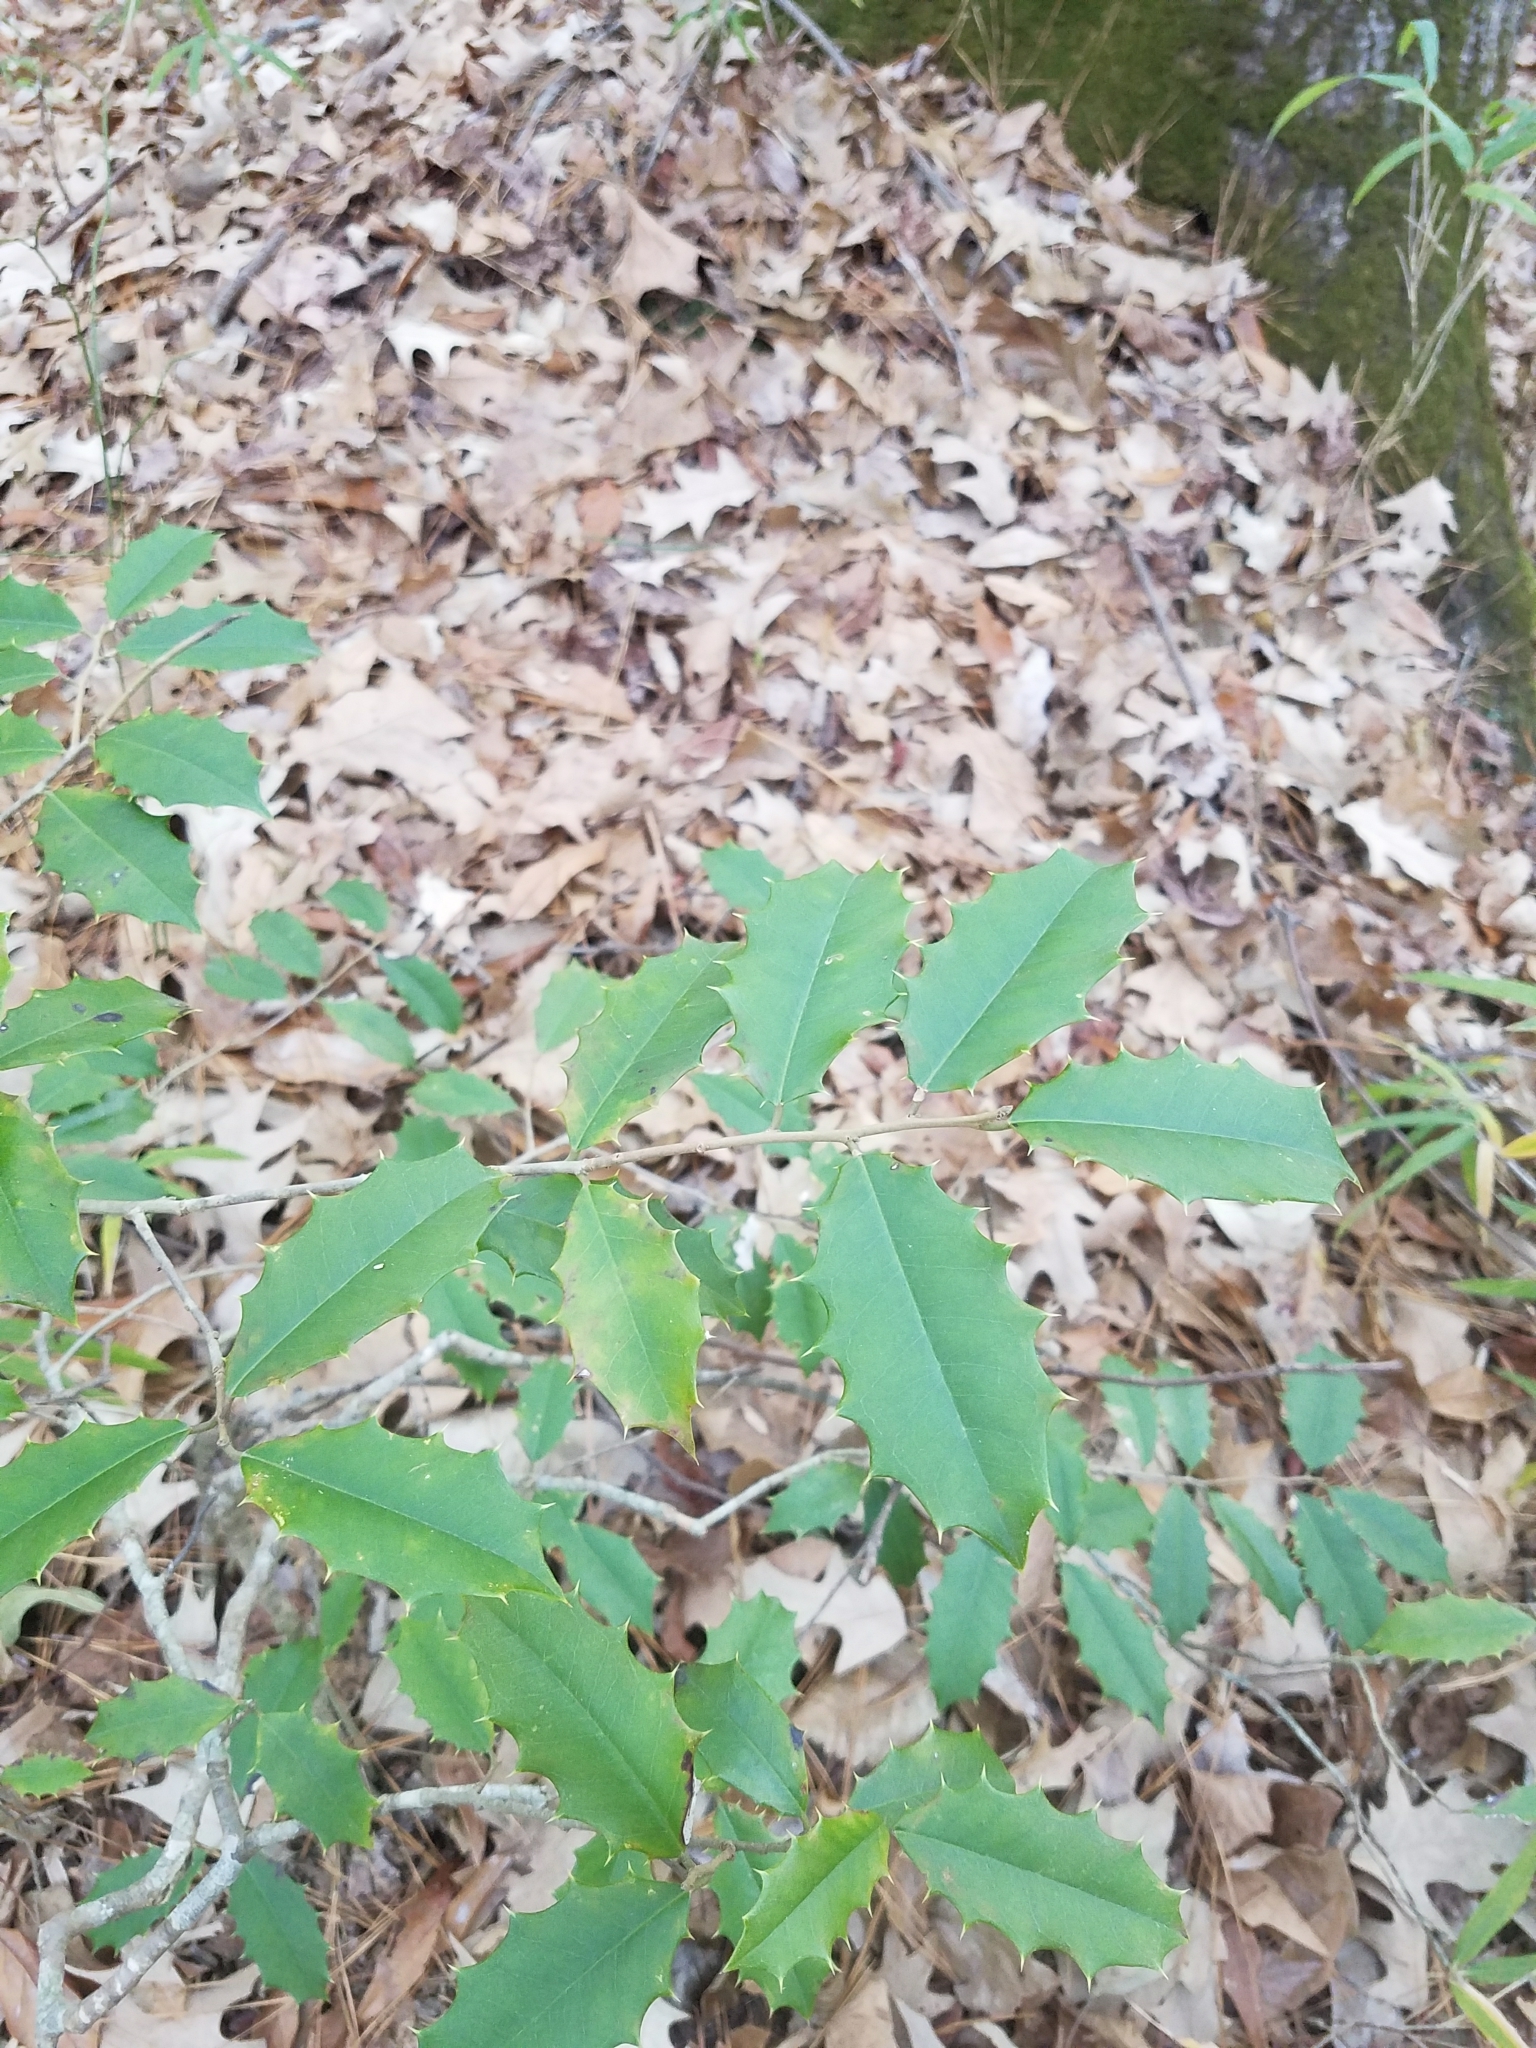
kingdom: Plantae
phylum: Tracheophyta
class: Magnoliopsida
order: Aquifoliales
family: Aquifoliaceae
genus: Ilex
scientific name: Ilex opaca
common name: American holly
